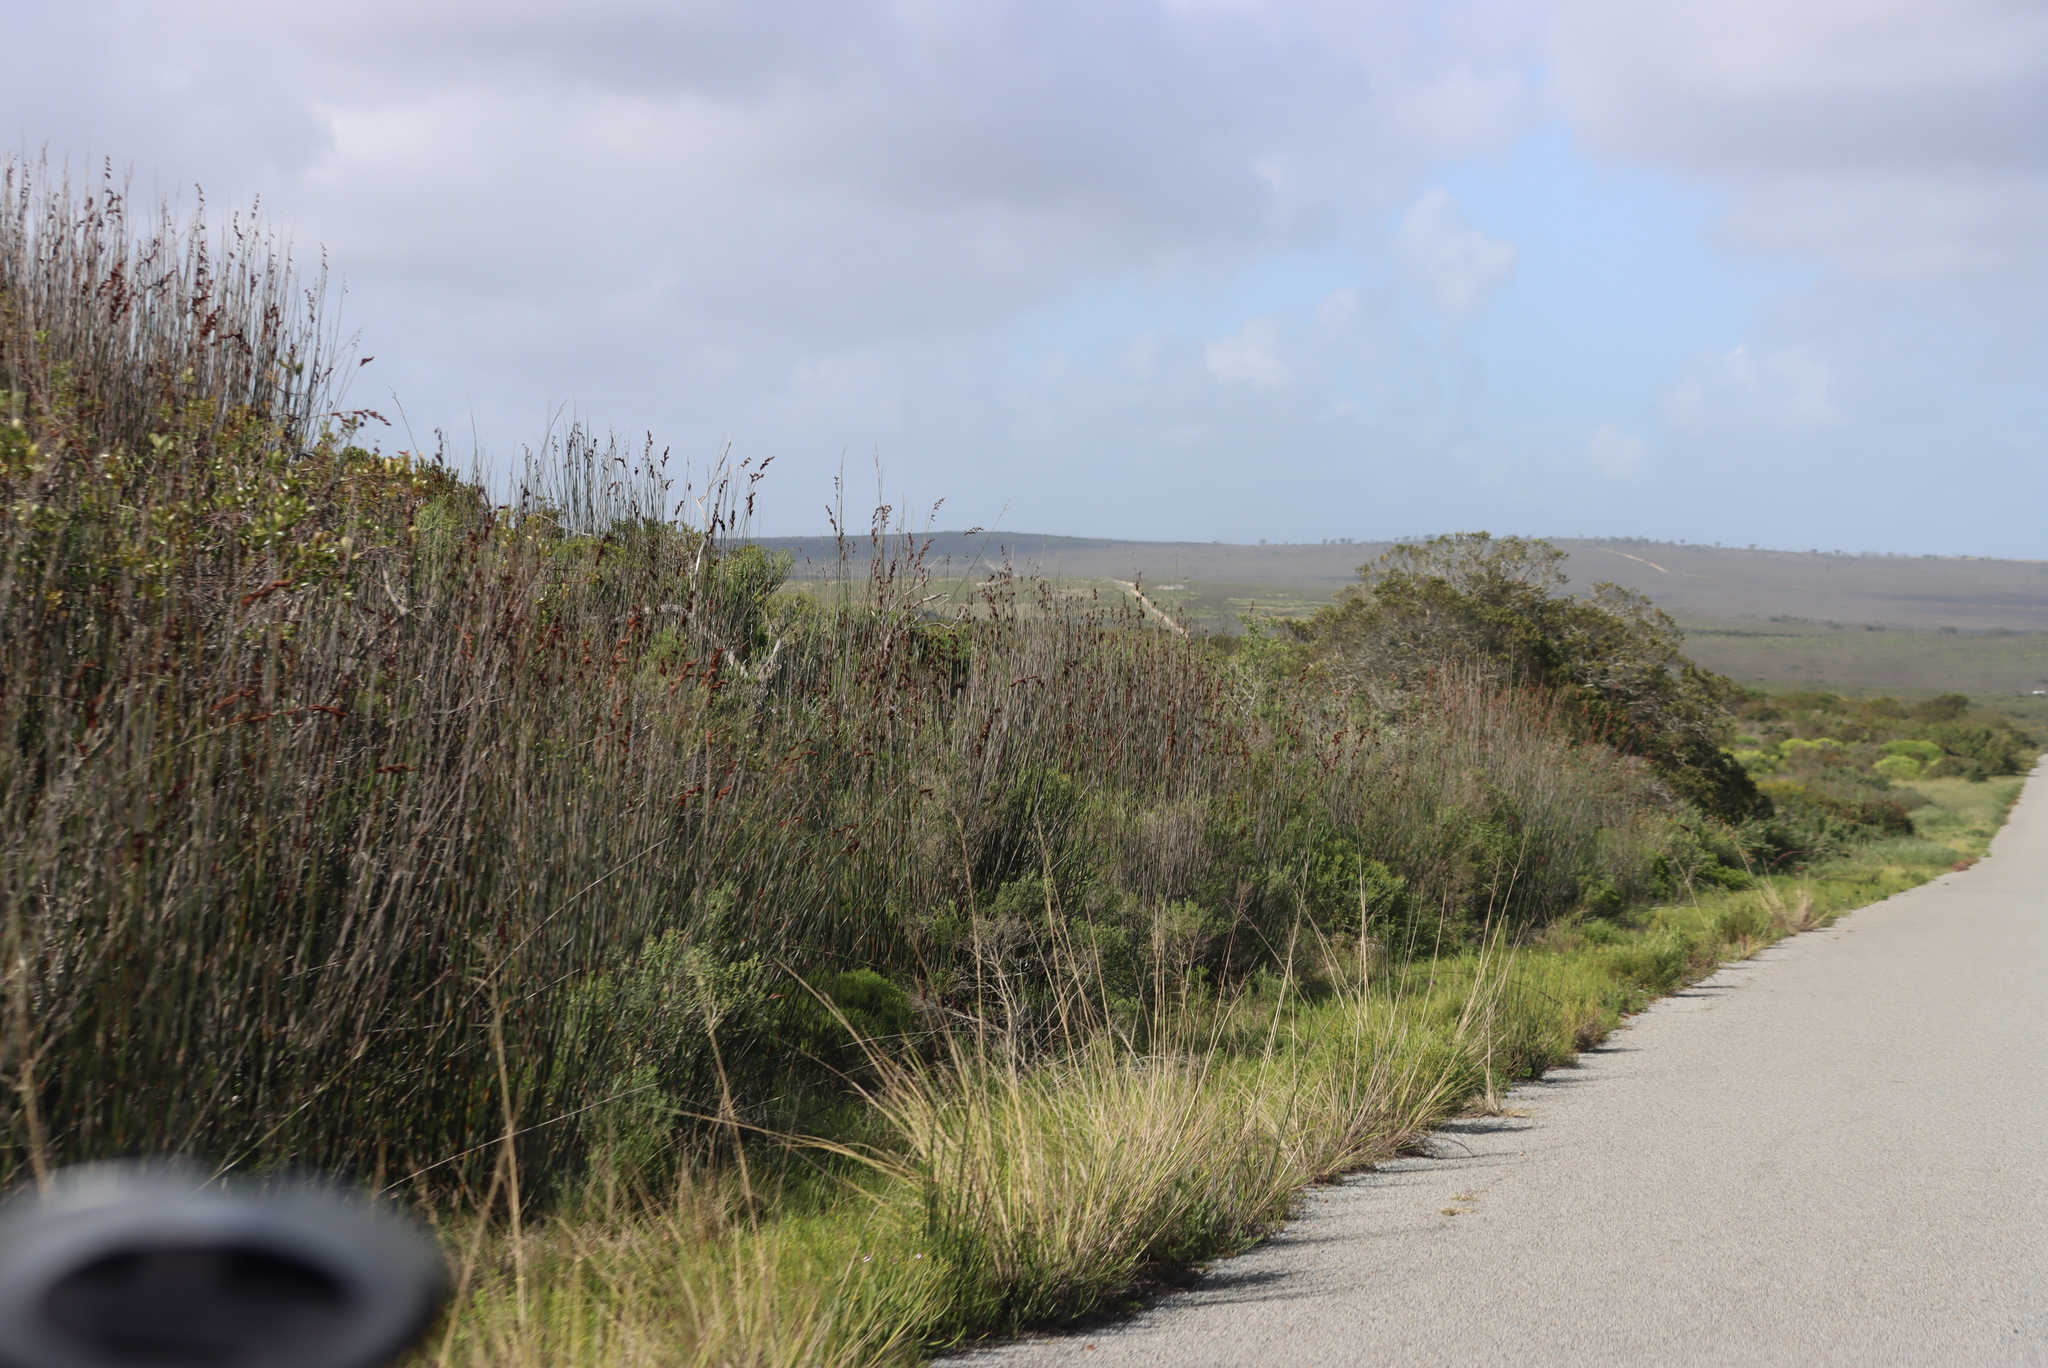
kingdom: Plantae
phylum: Tracheophyta
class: Liliopsida
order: Poales
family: Restionaceae
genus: Thamnochortus
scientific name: Thamnochortus spicigerus
